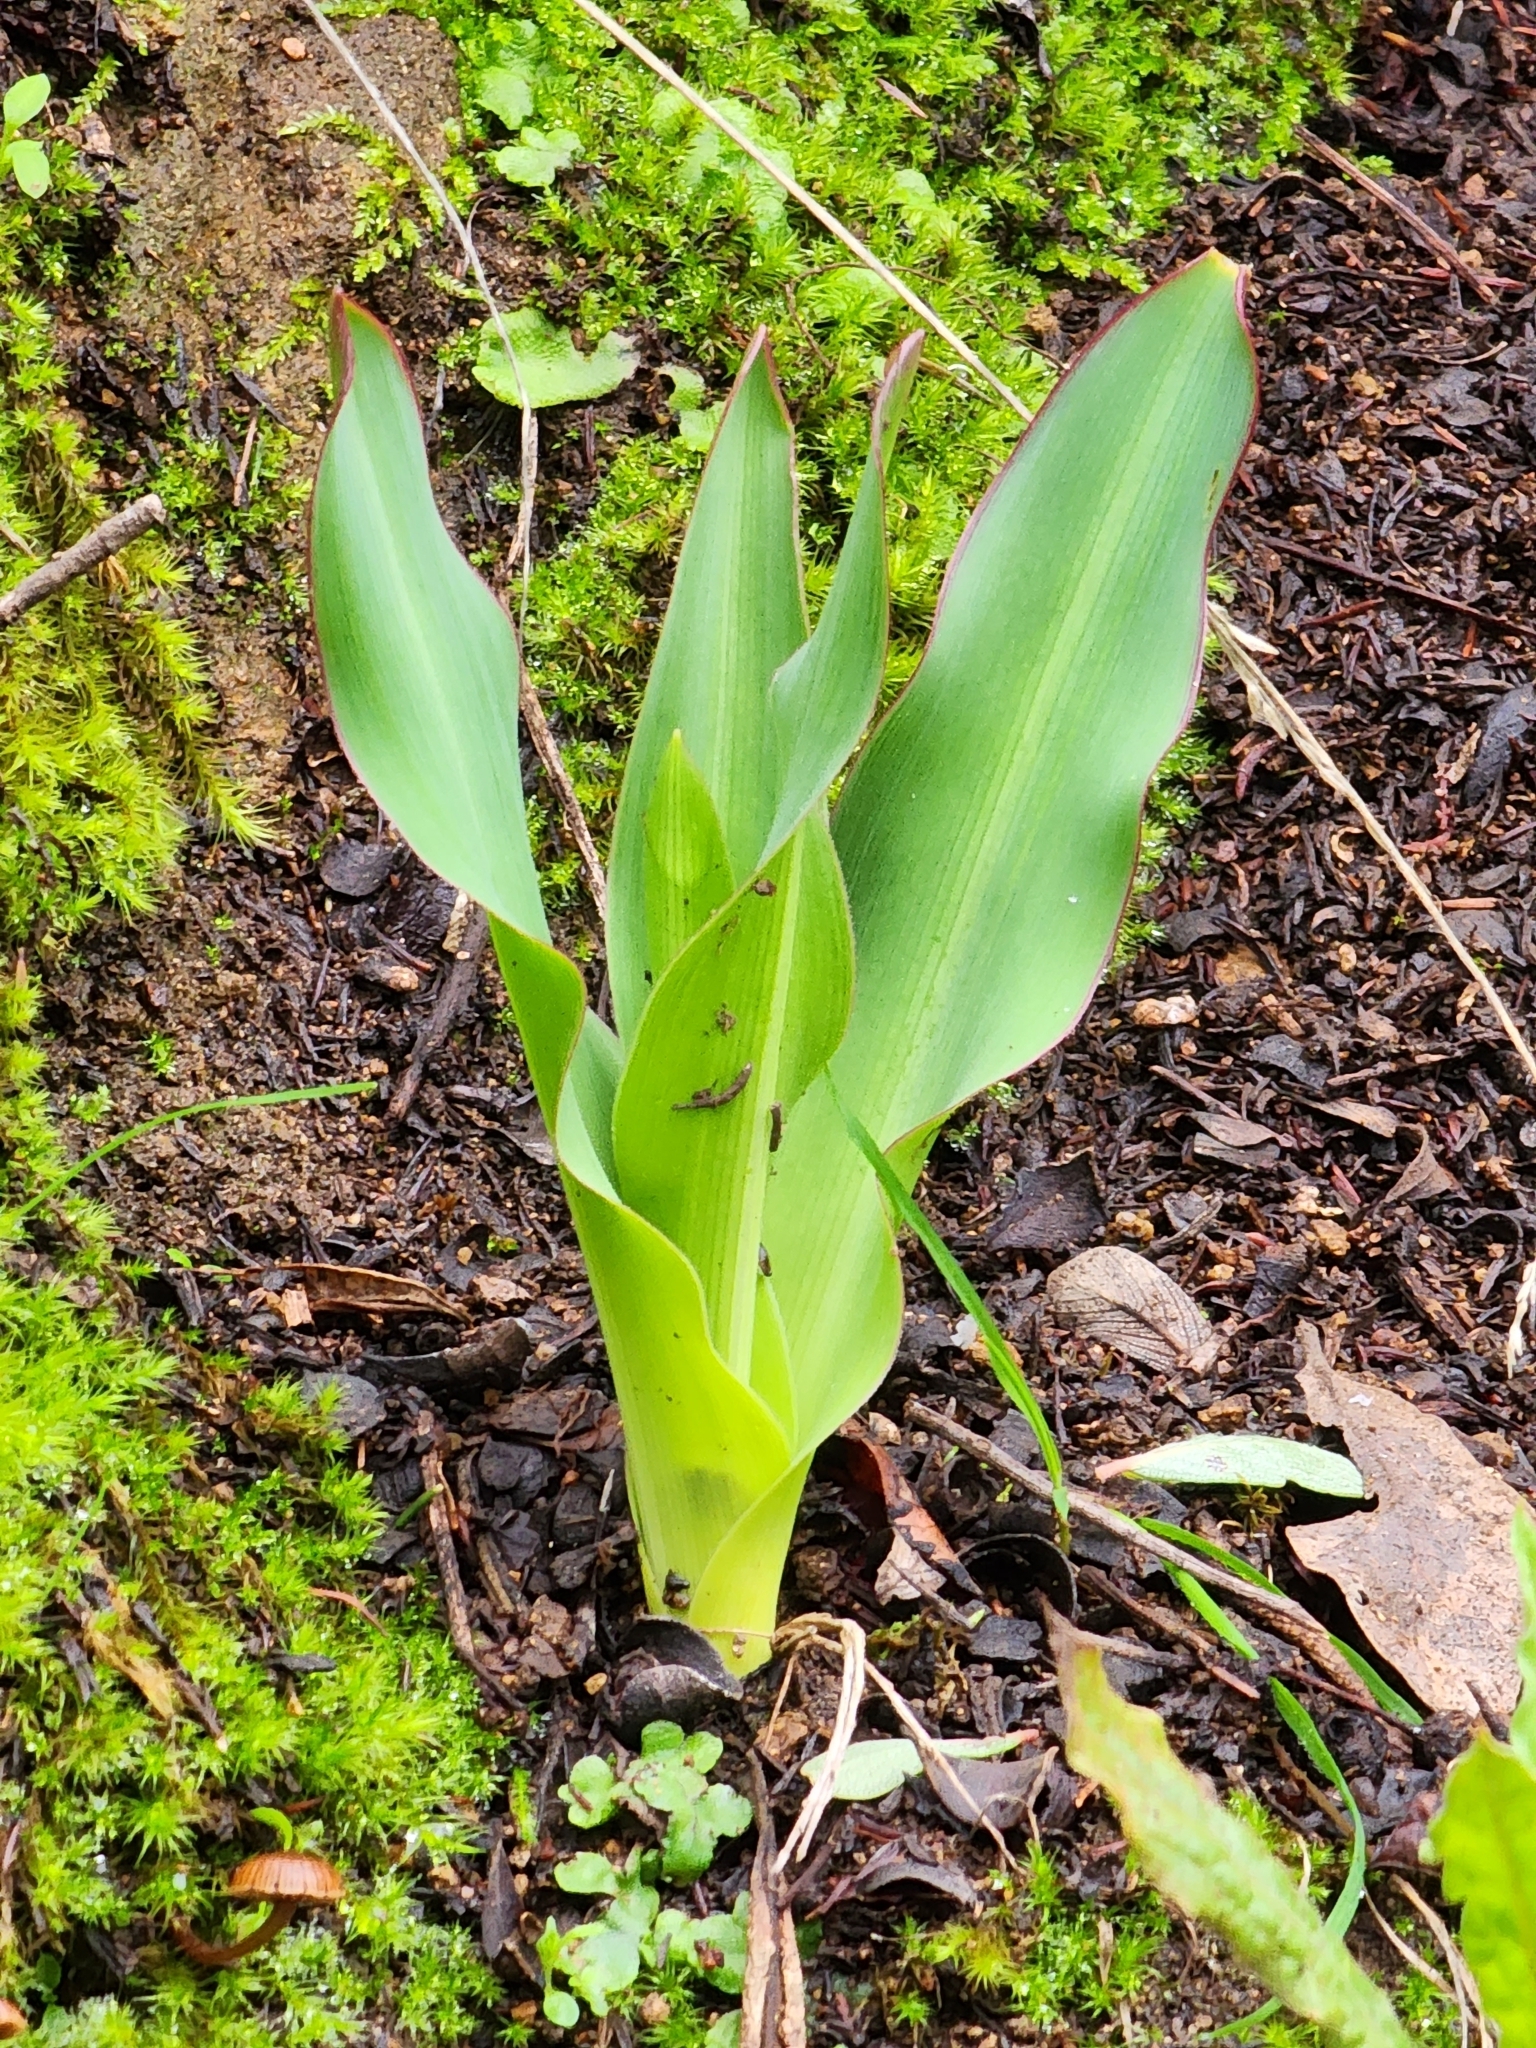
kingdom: Plantae
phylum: Tracheophyta
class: Liliopsida
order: Asparagales
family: Asparagaceae
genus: Chlorogalum
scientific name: Chlorogalum pomeridianum
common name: Amole
